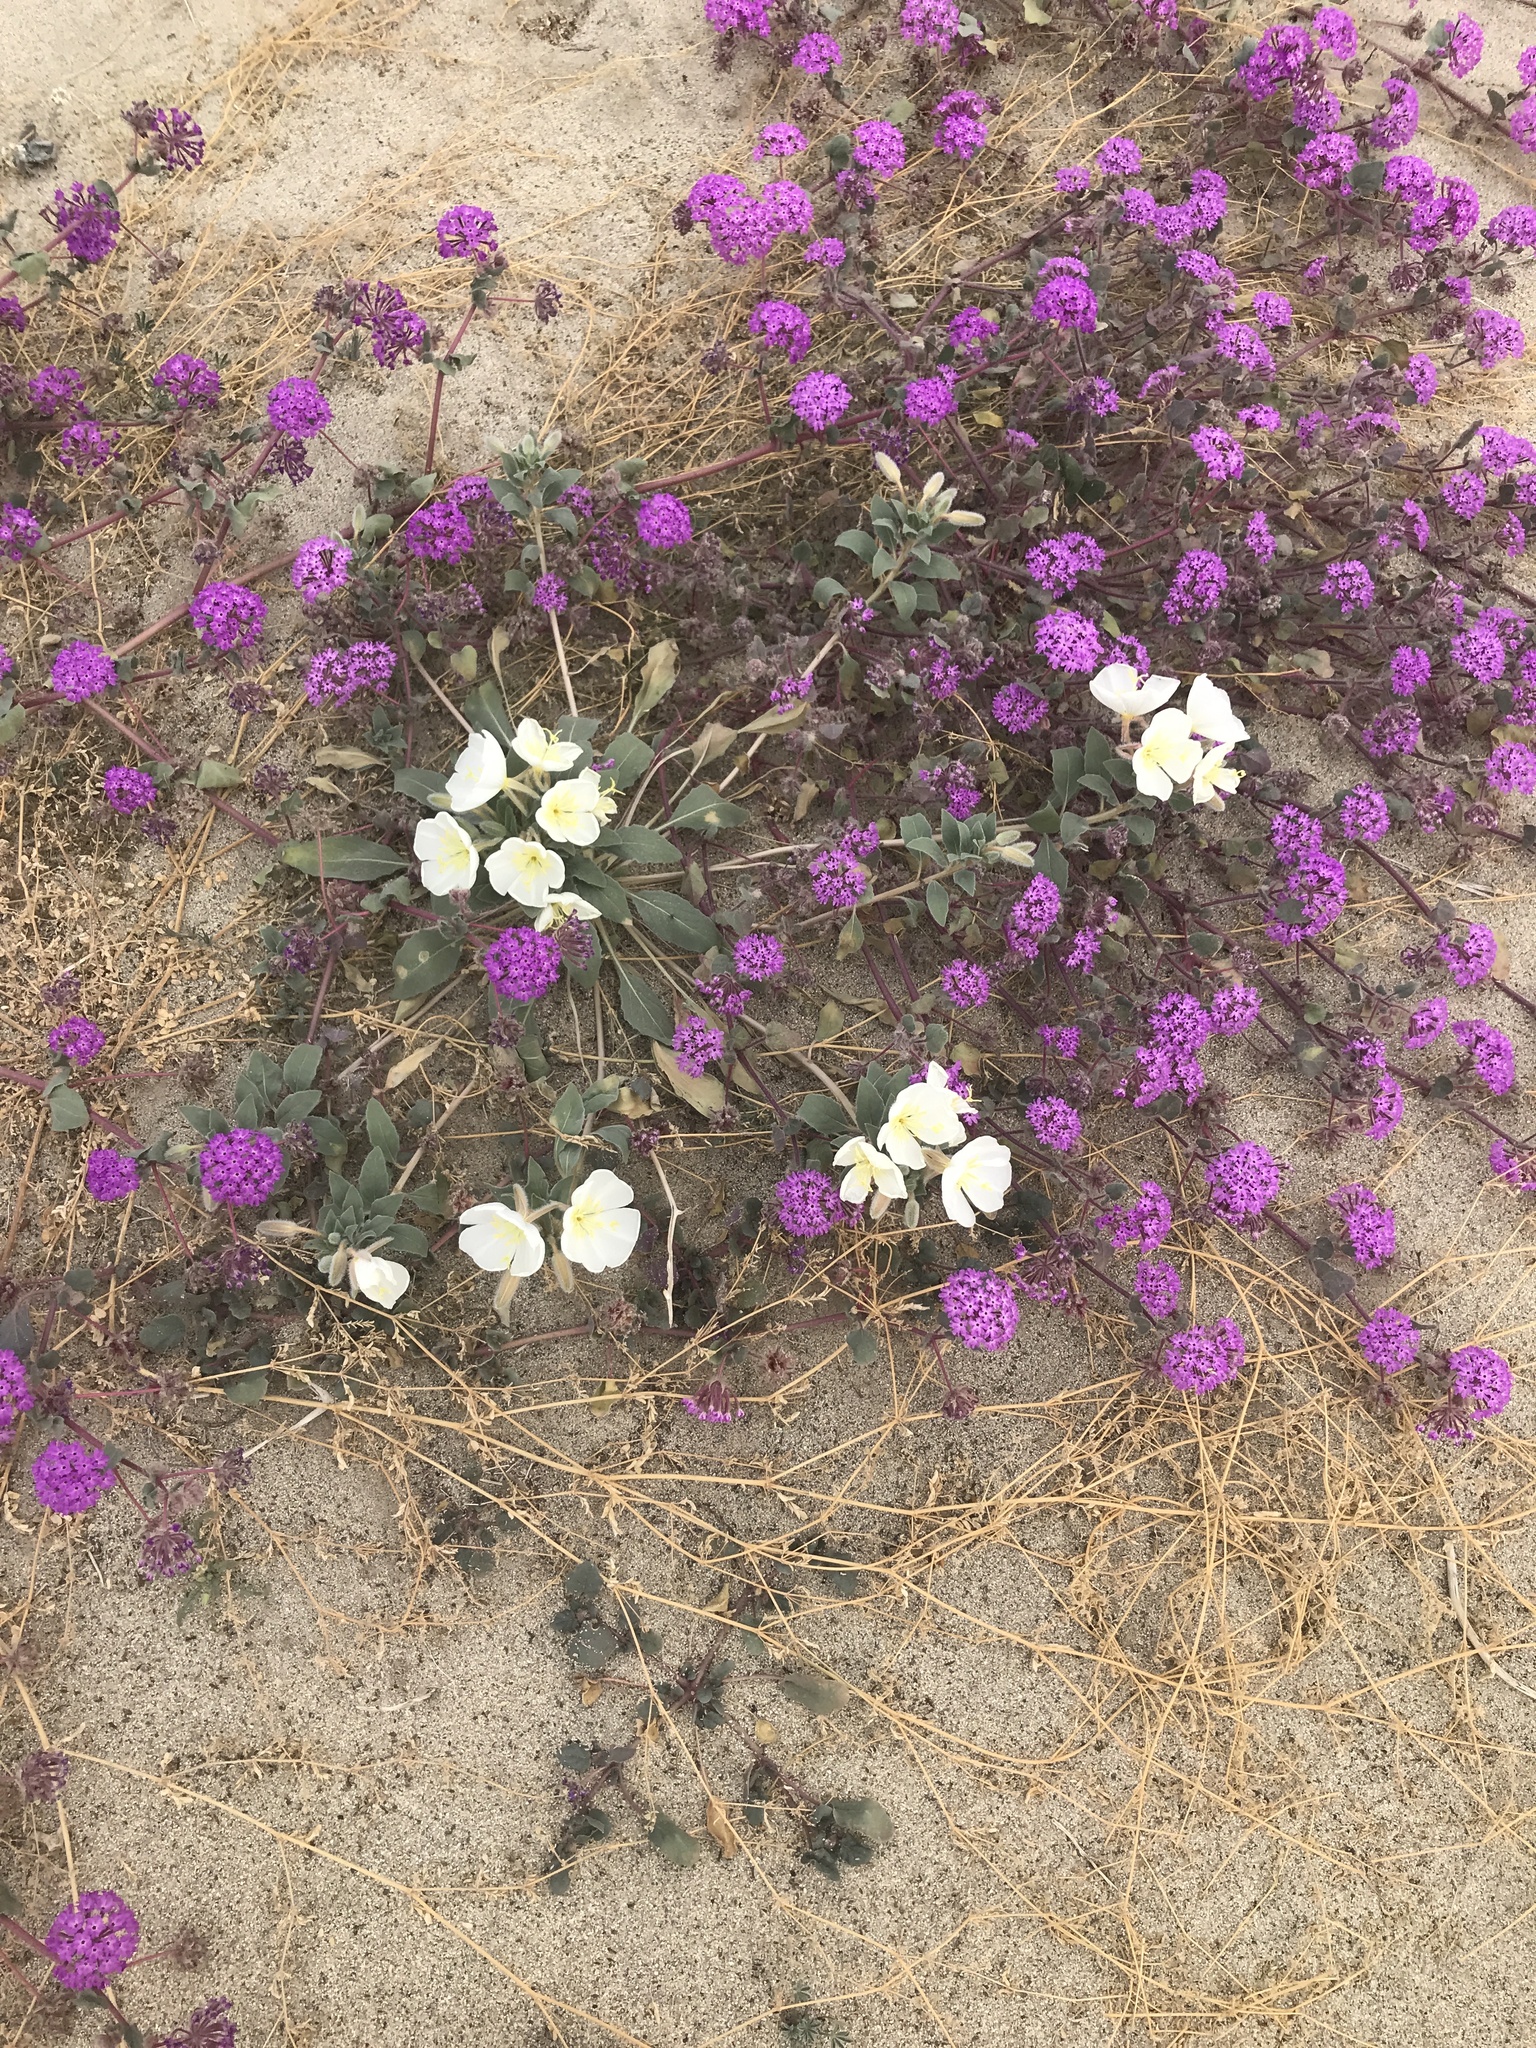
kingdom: Plantae
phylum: Tracheophyta
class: Magnoliopsida
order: Myrtales
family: Onagraceae
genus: Oenothera
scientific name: Oenothera deltoides
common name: Basket evening-primrose
